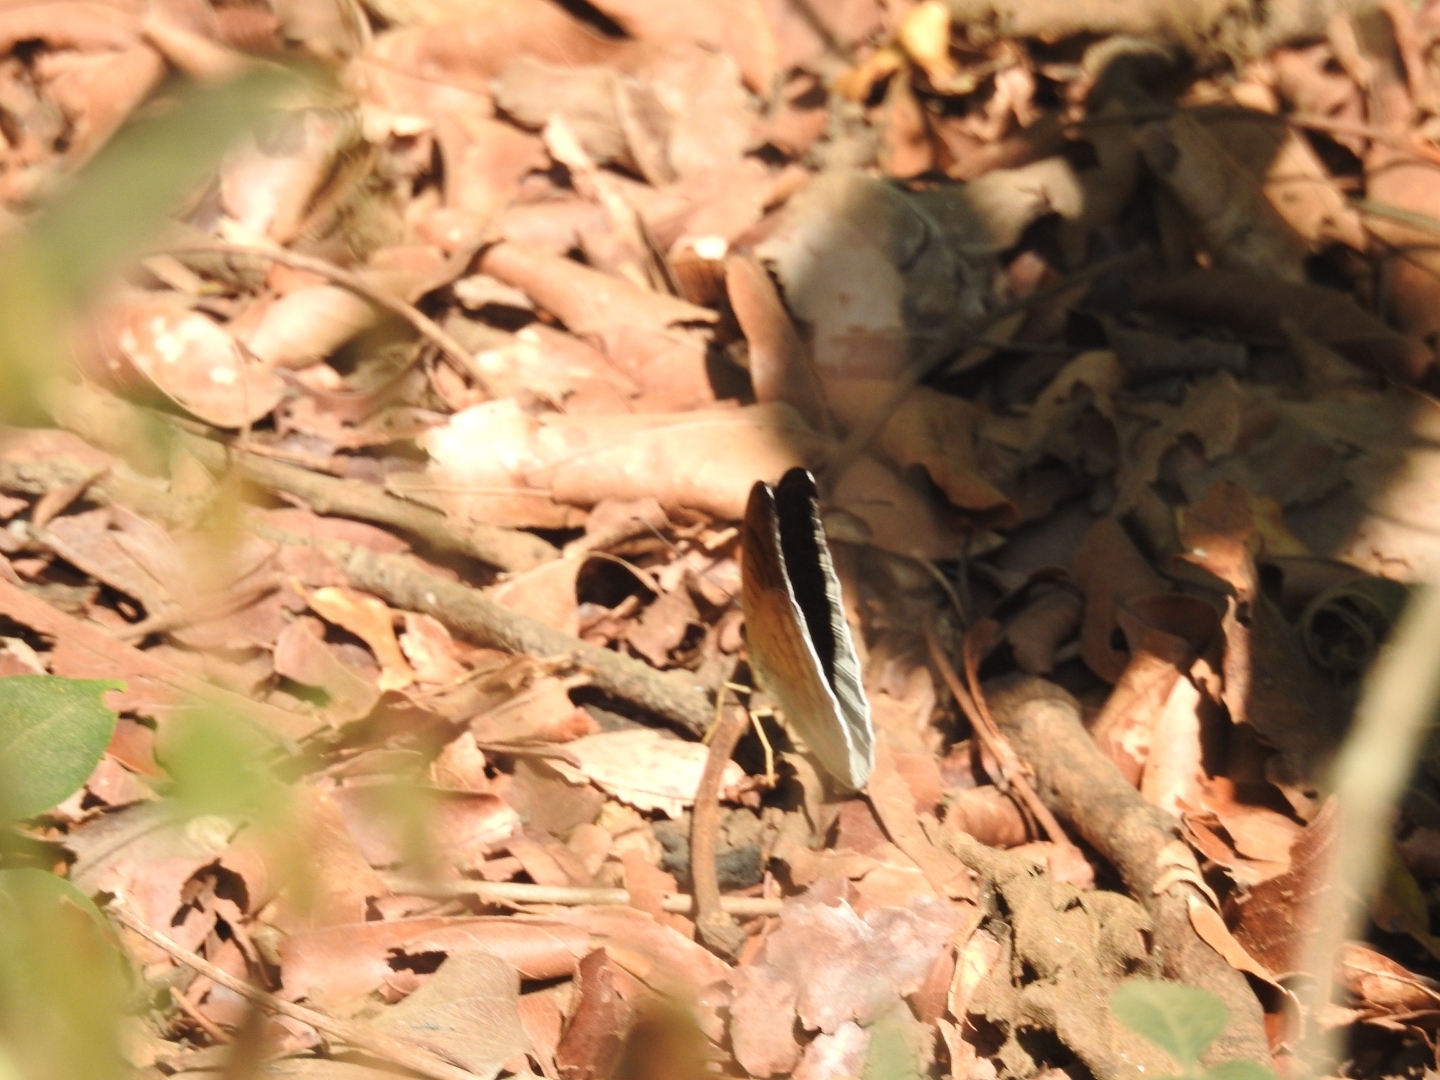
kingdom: Animalia
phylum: Arthropoda
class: Insecta
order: Lepidoptera
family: Nymphalidae
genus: Tanaecia
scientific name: Tanaecia lepidea
